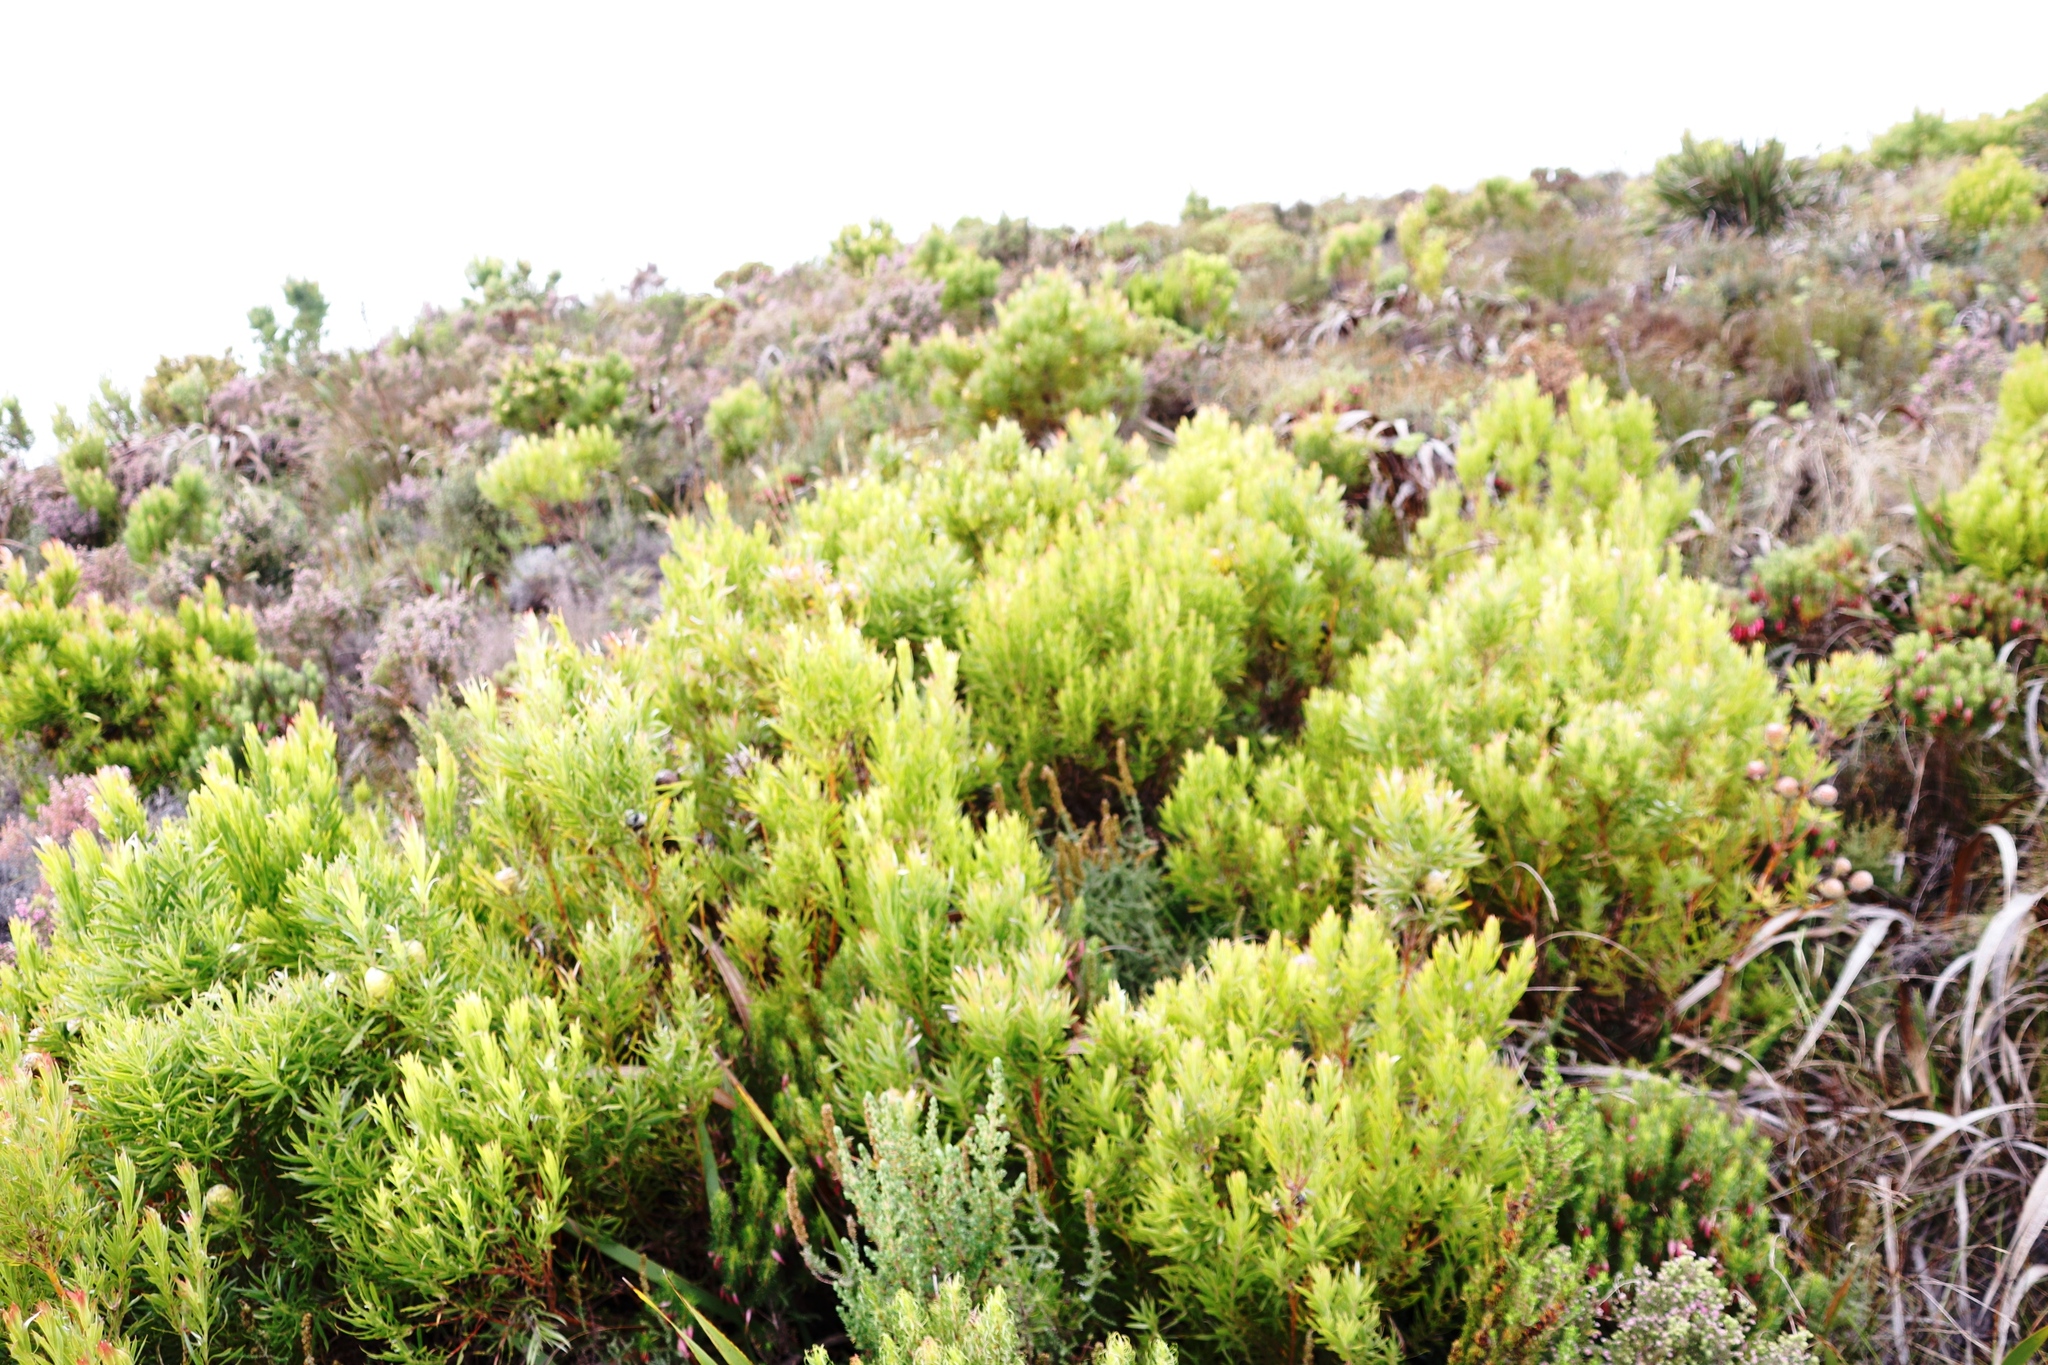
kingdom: Plantae
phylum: Tracheophyta
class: Magnoliopsida
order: Proteales
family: Proteaceae
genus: Leucadendron
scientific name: Leucadendron xanthoconus
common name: Sickle-leaf conebush
